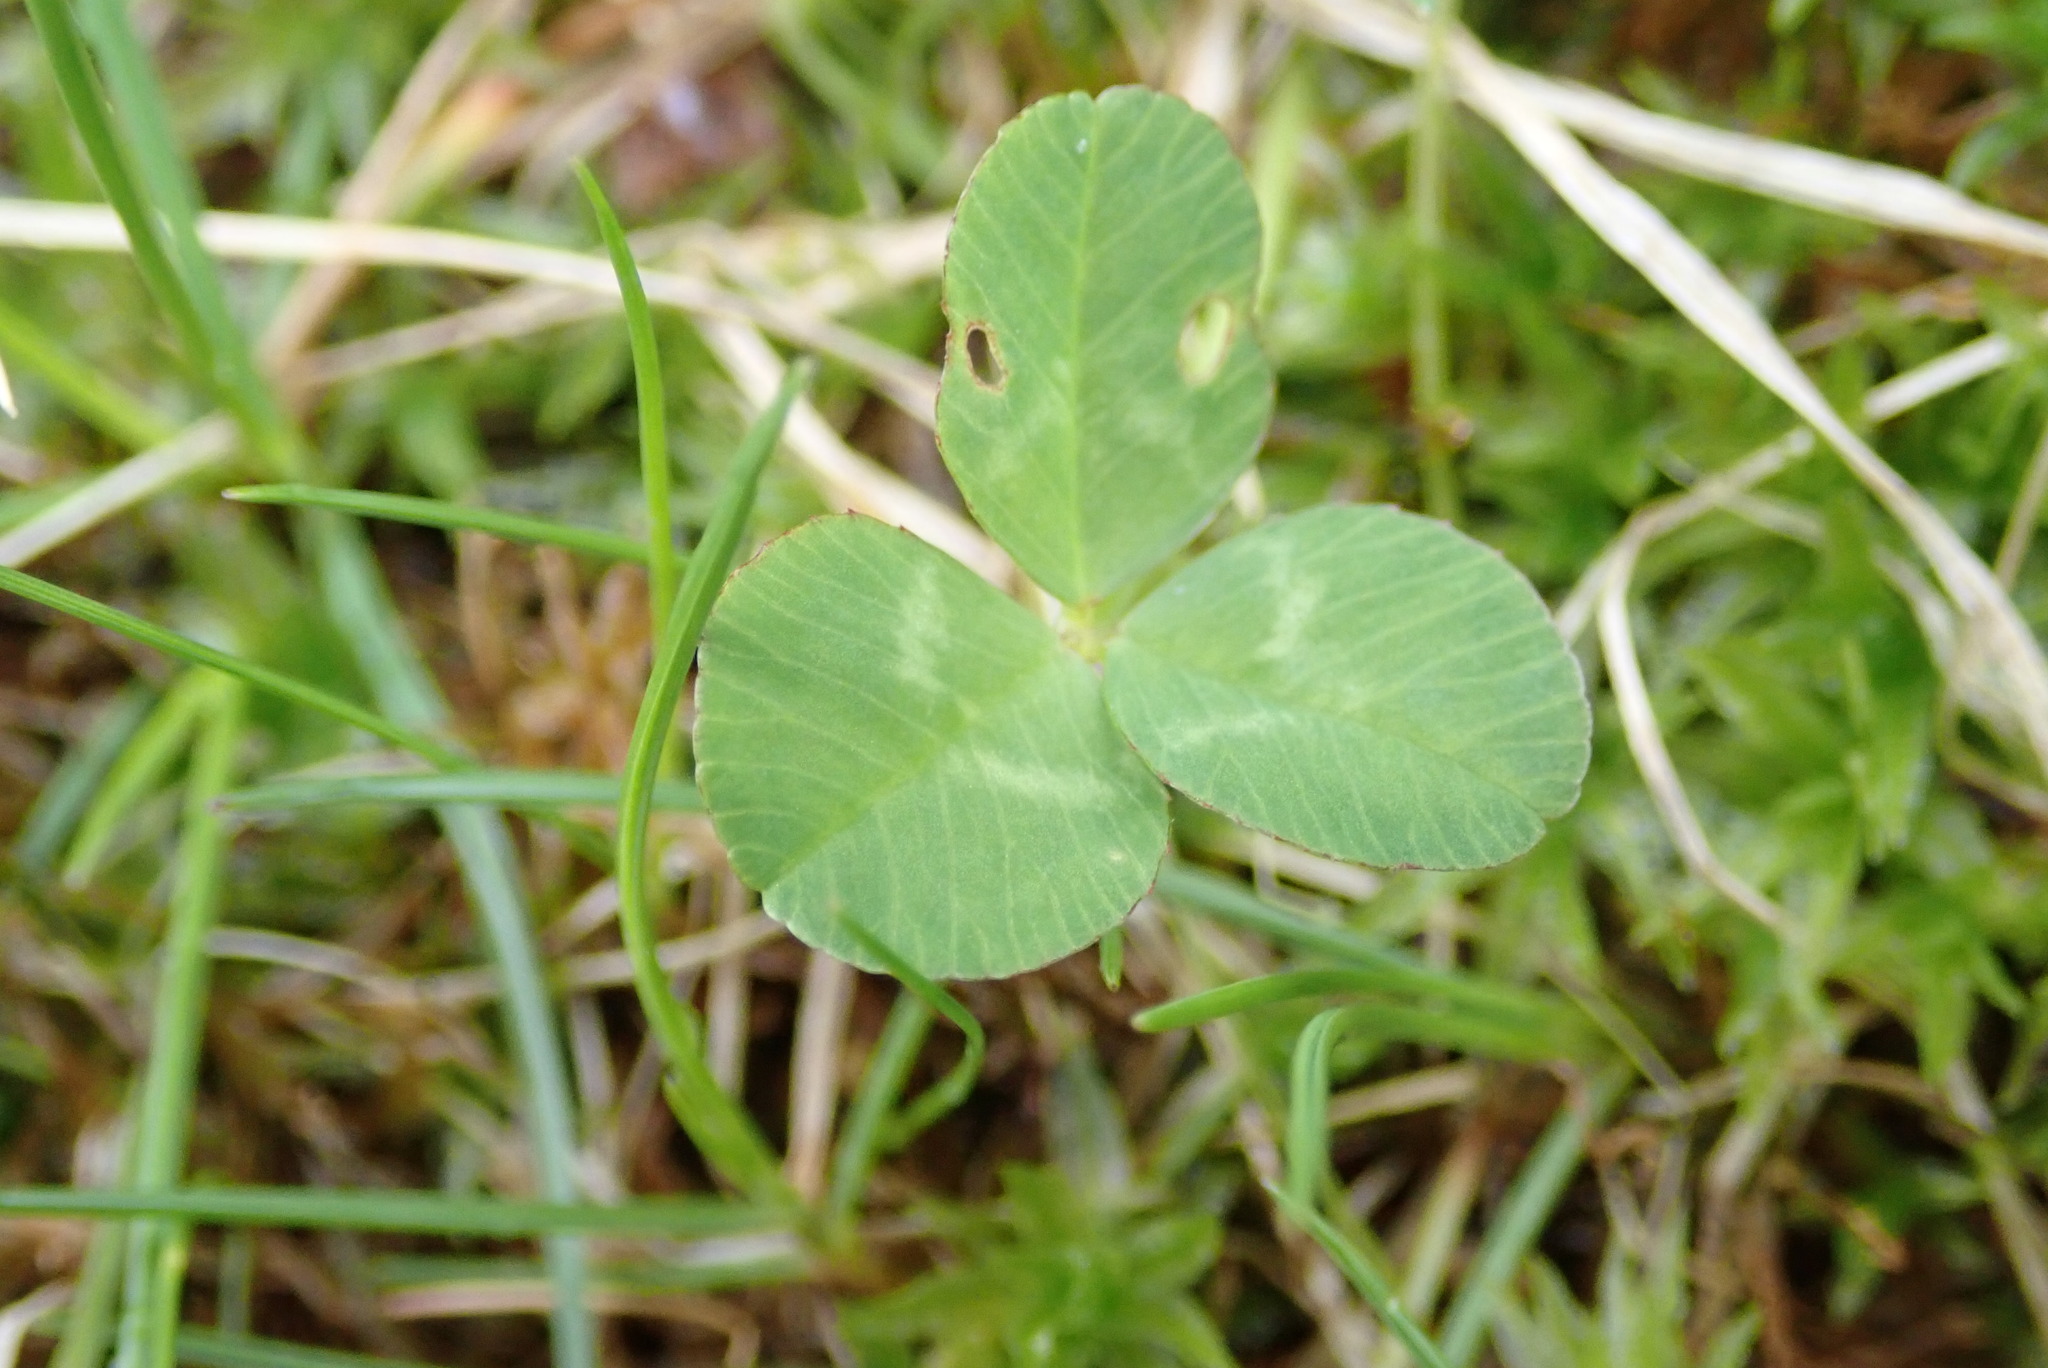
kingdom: Plantae
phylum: Tracheophyta
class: Magnoliopsida
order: Fabales
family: Fabaceae
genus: Trifolium
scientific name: Trifolium repens
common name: White clover
